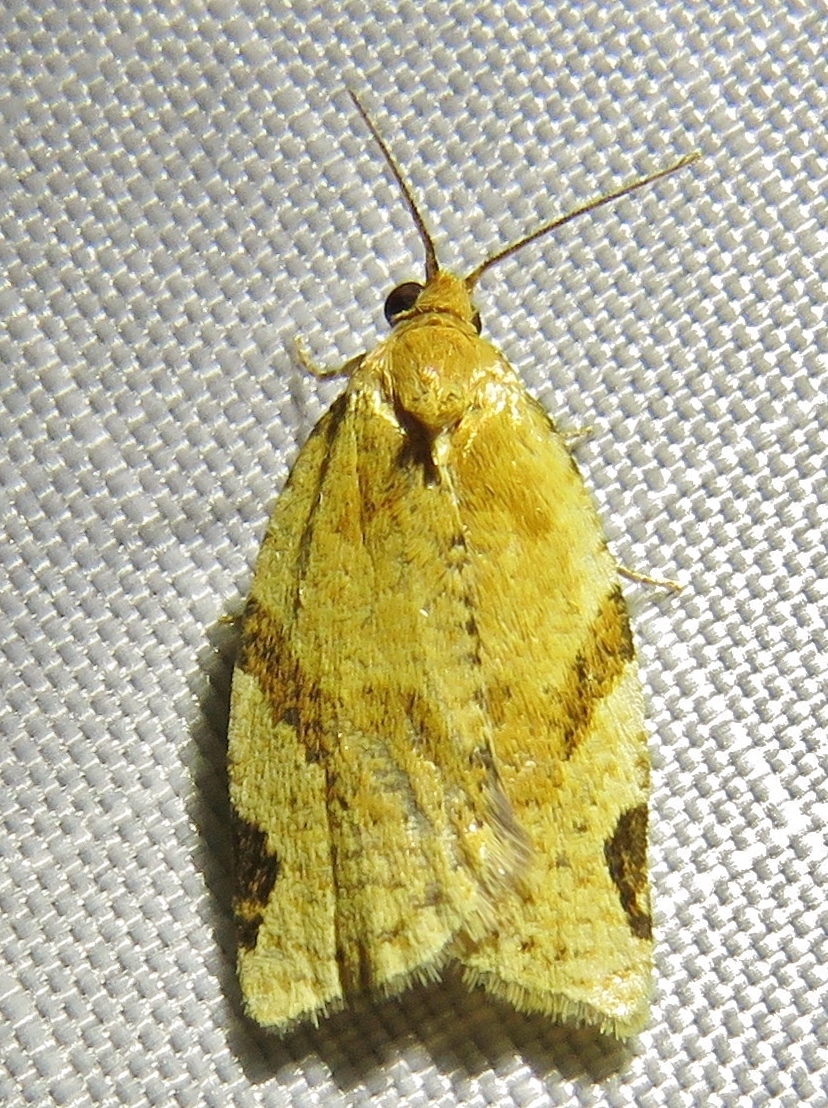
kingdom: Animalia
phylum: Arthropoda
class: Insecta
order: Lepidoptera
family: Tortricidae
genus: Paramesia
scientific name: Paramesia gnomana
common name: Small straw twist
